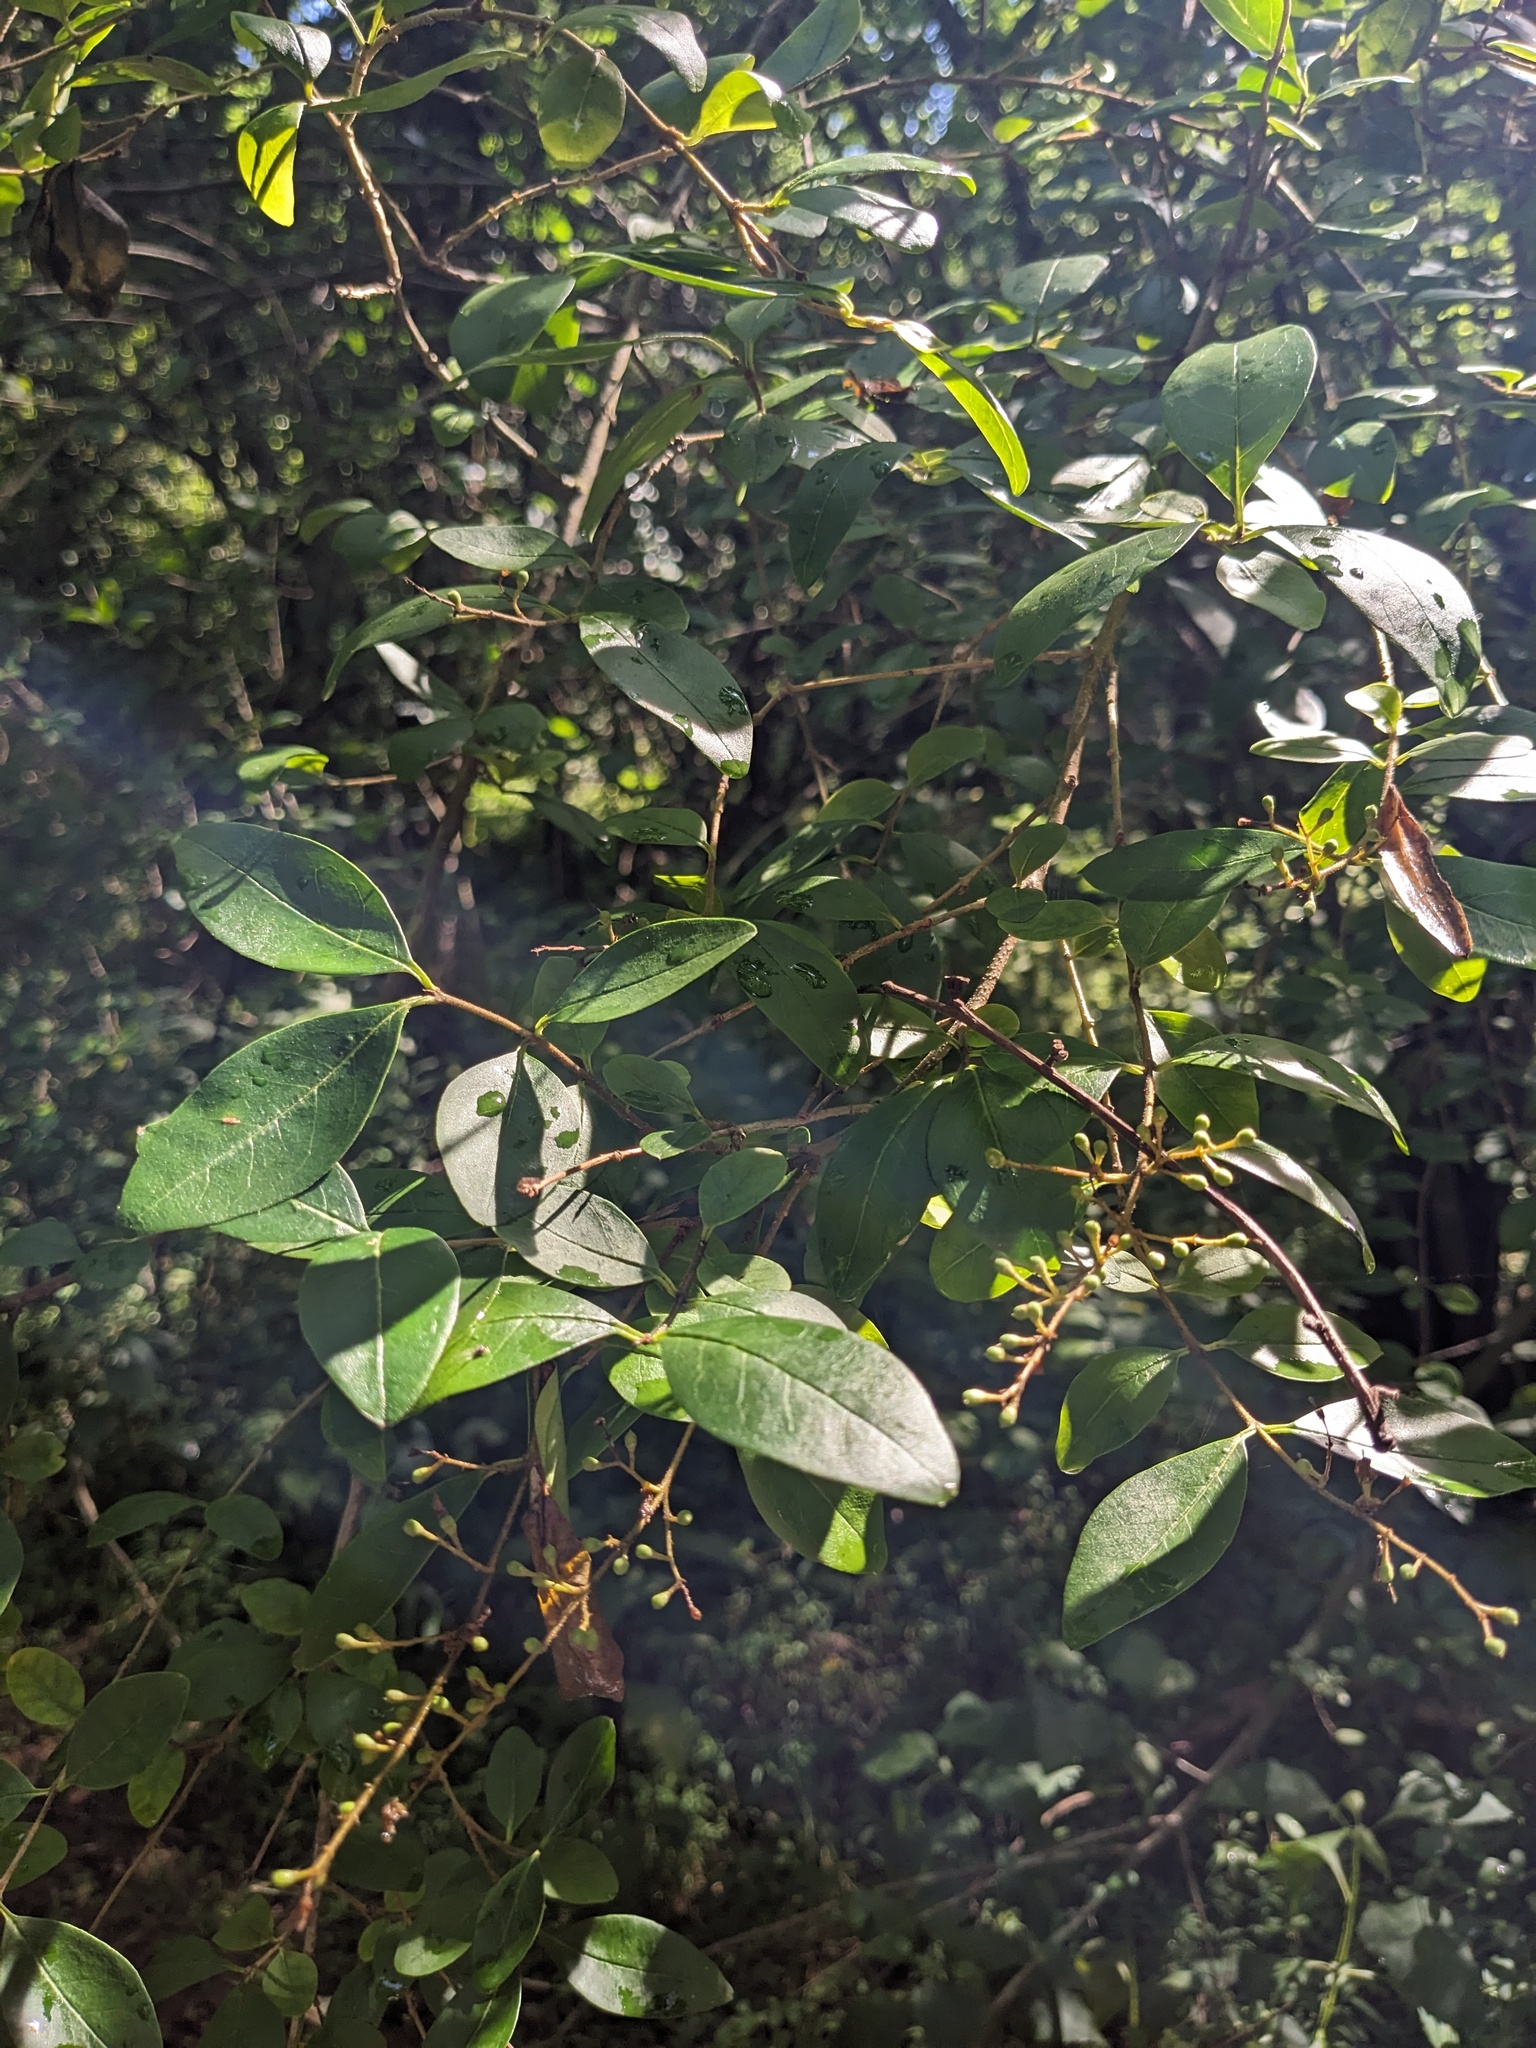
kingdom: Plantae
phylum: Tracheophyta
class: Magnoliopsida
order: Lamiales
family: Oleaceae
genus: Ligustrum
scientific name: Ligustrum sinense
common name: Chinese privet
